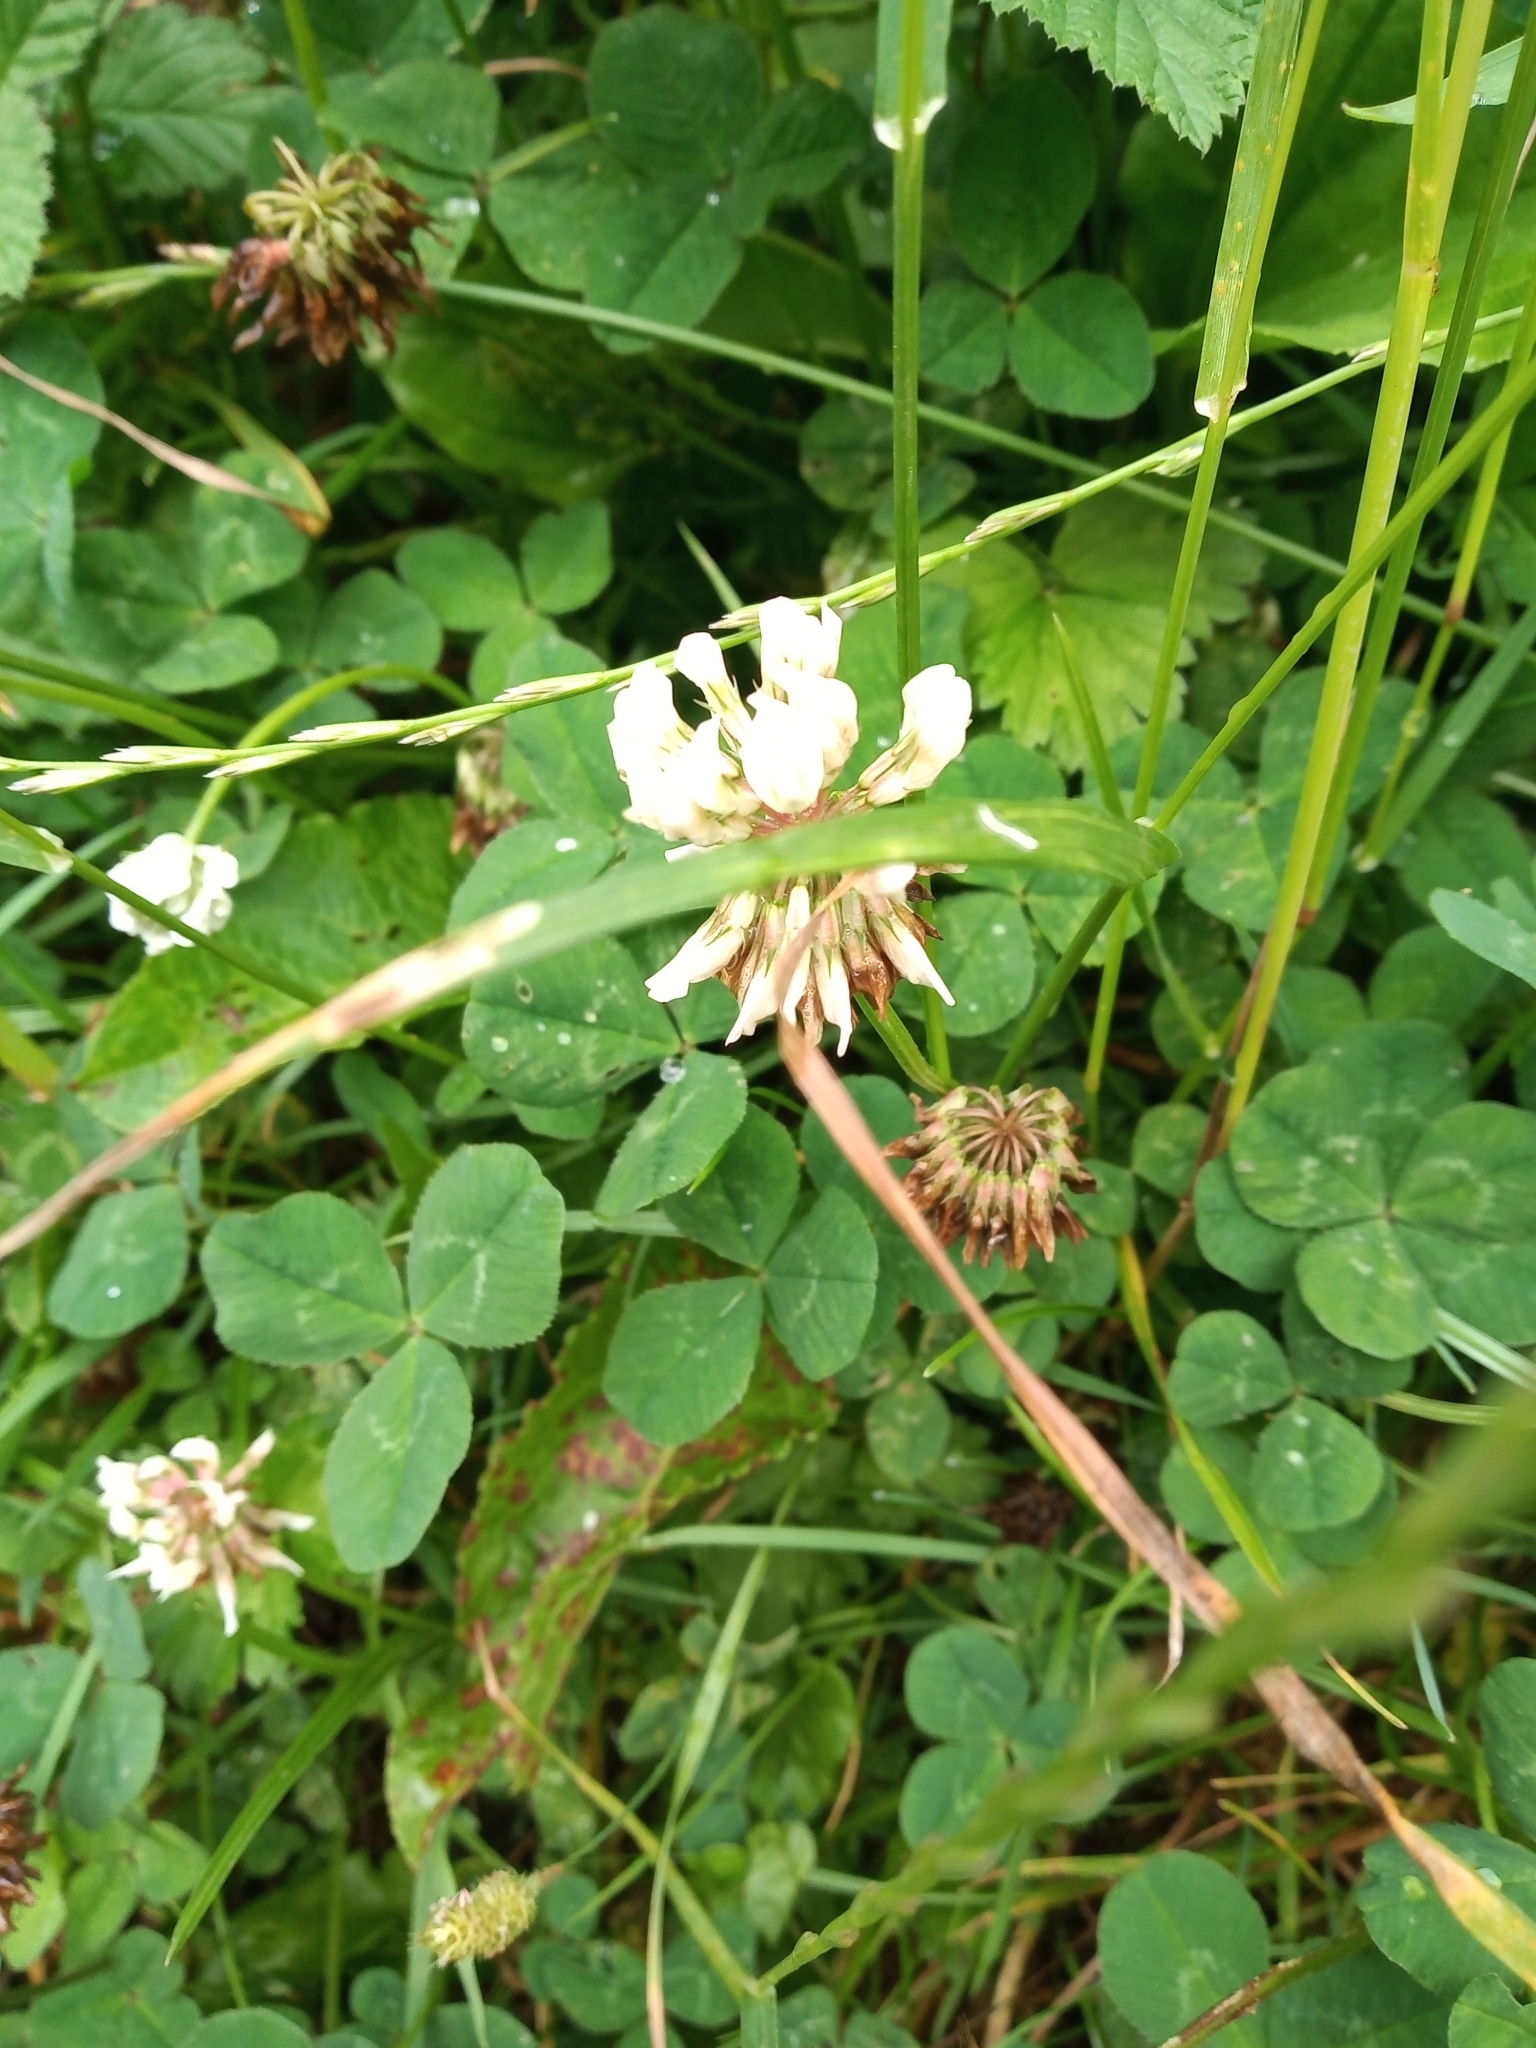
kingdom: Plantae
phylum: Tracheophyta
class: Magnoliopsida
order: Fabales
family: Fabaceae
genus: Trifolium
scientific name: Trifolium repens
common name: White clover
